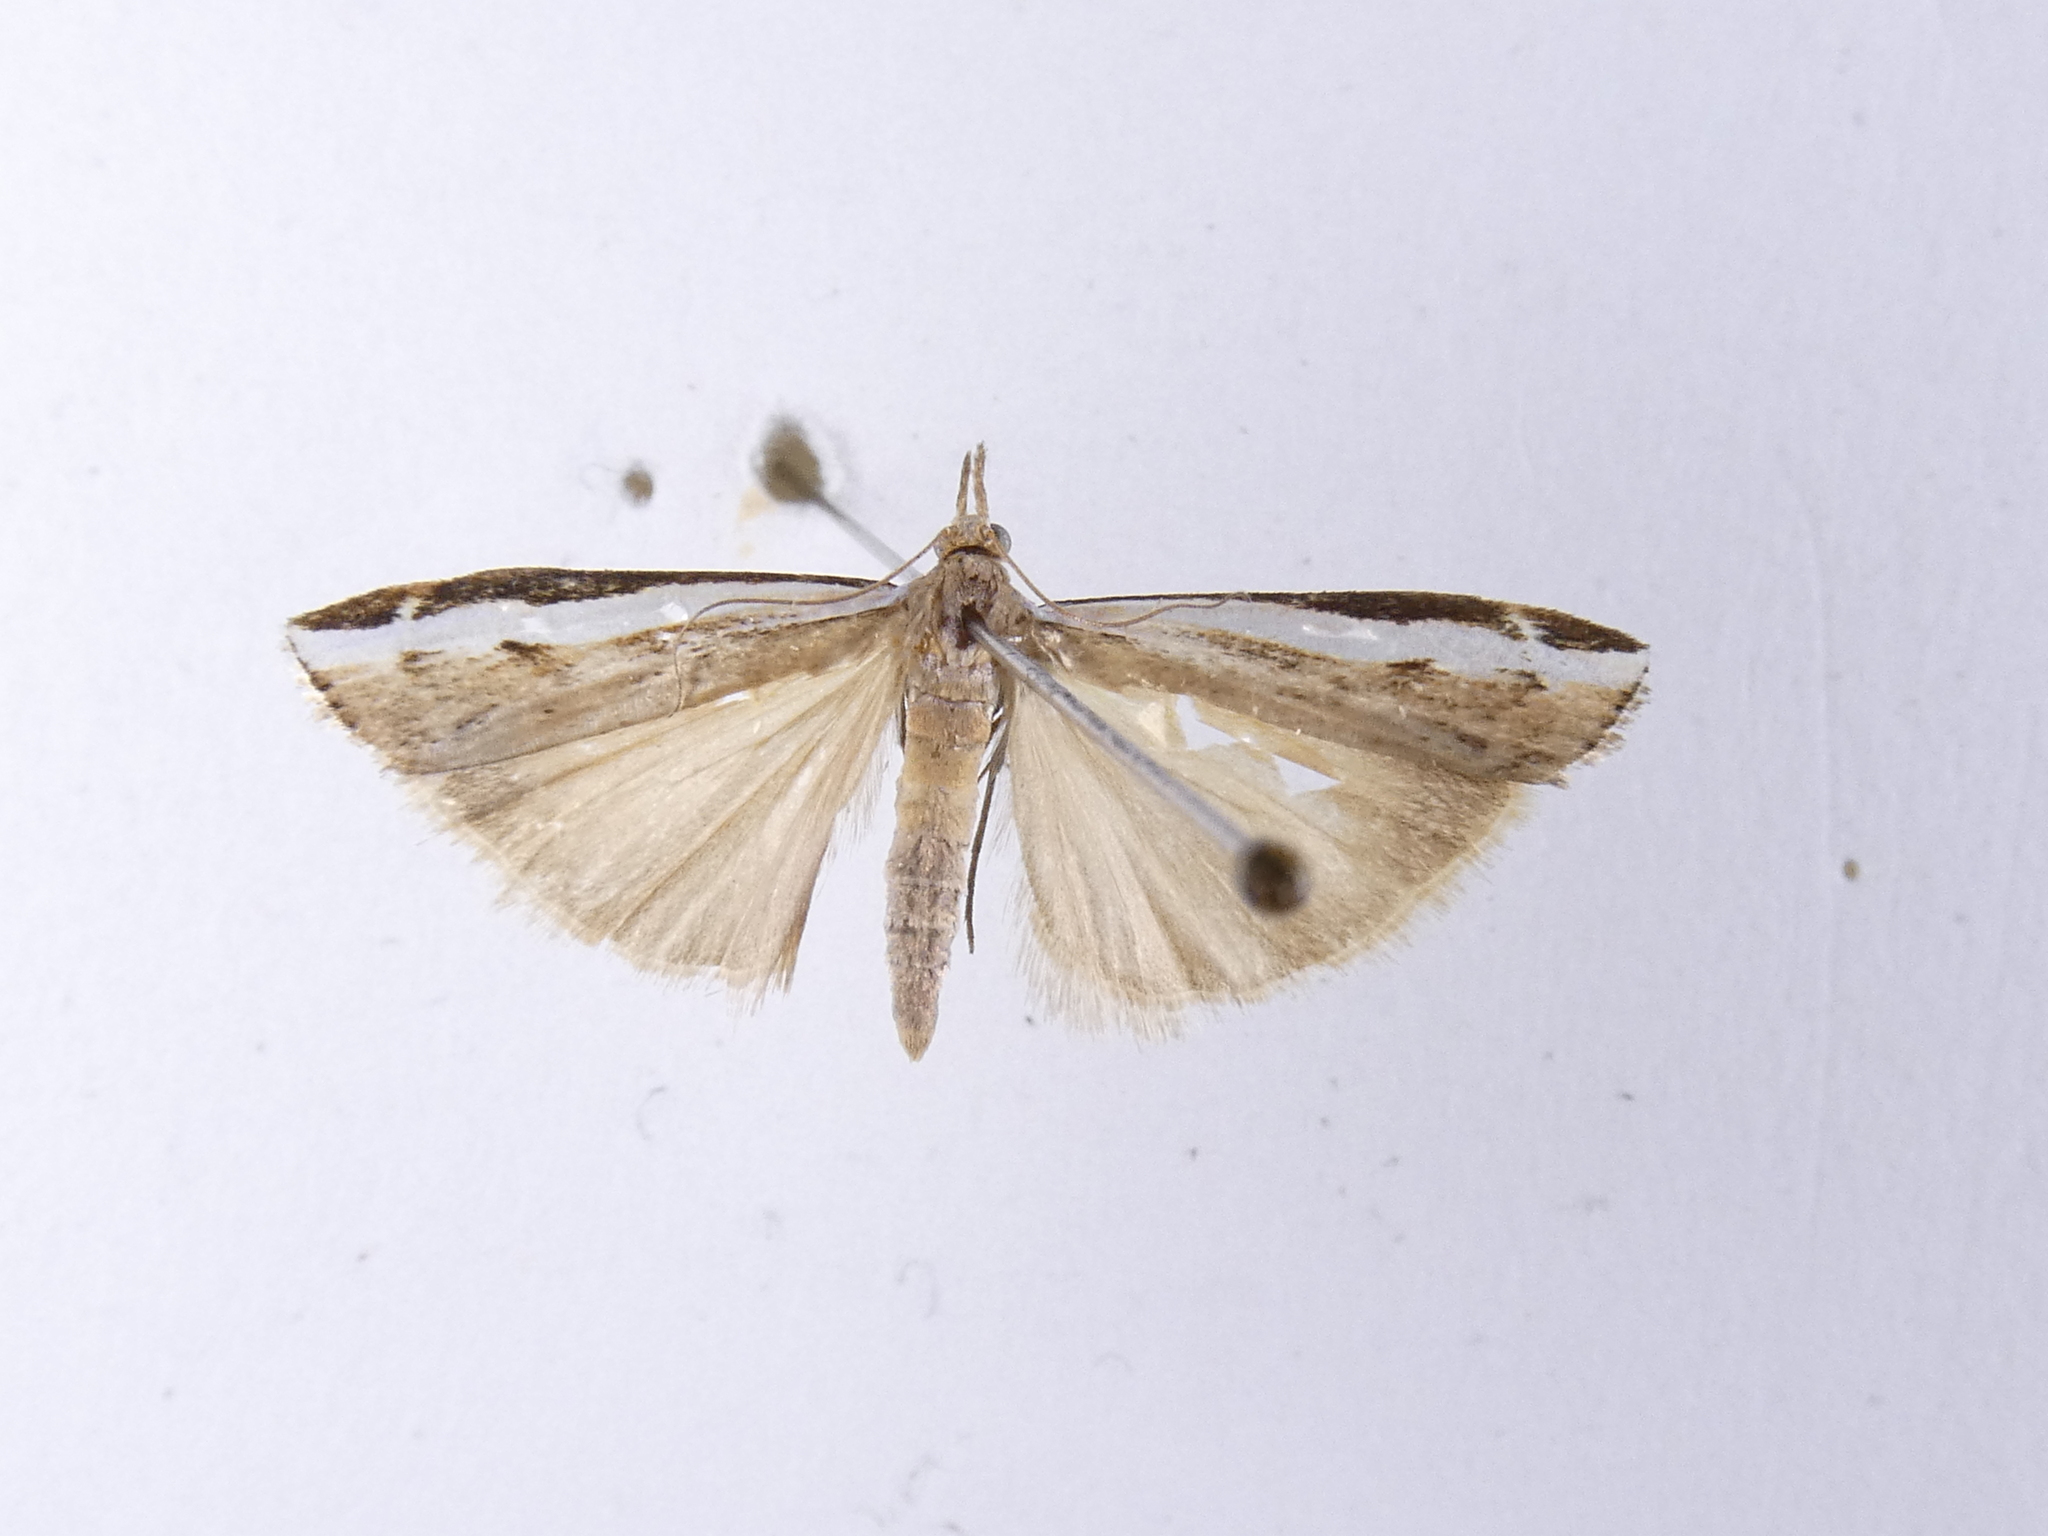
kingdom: Animalia
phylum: Arthropoda
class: Insecta
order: Lepidoptera
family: Crambidae
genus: Orocrambus
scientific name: Orocrambus flexuosellus
